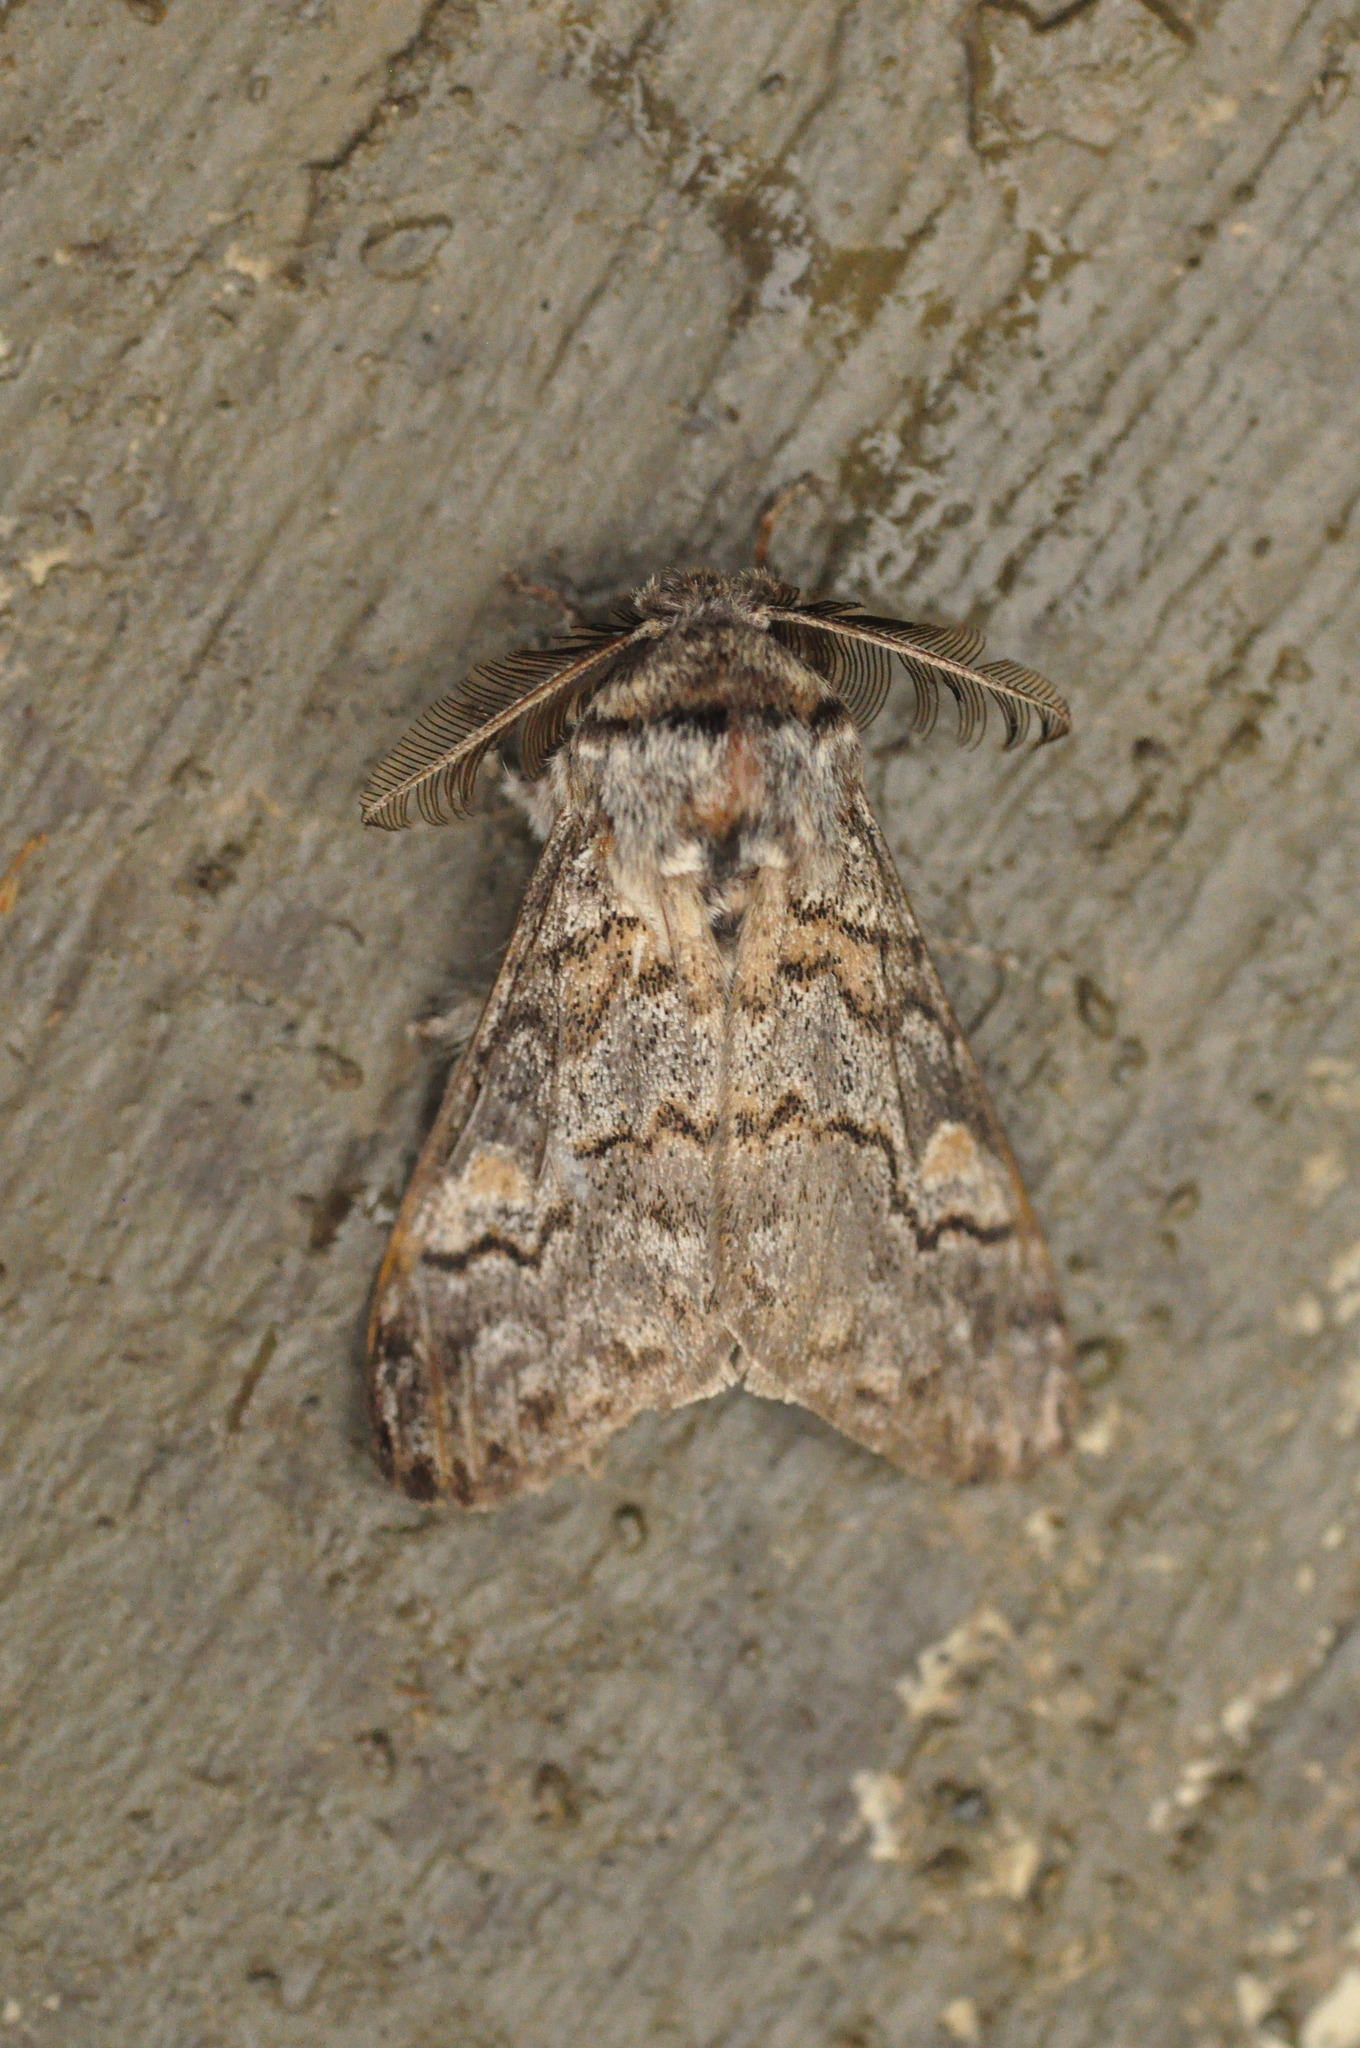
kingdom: Animalia
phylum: Arthropoda
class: Insecta
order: Lepidoptera
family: Erebidae
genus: Calliteara
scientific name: Calliteara
